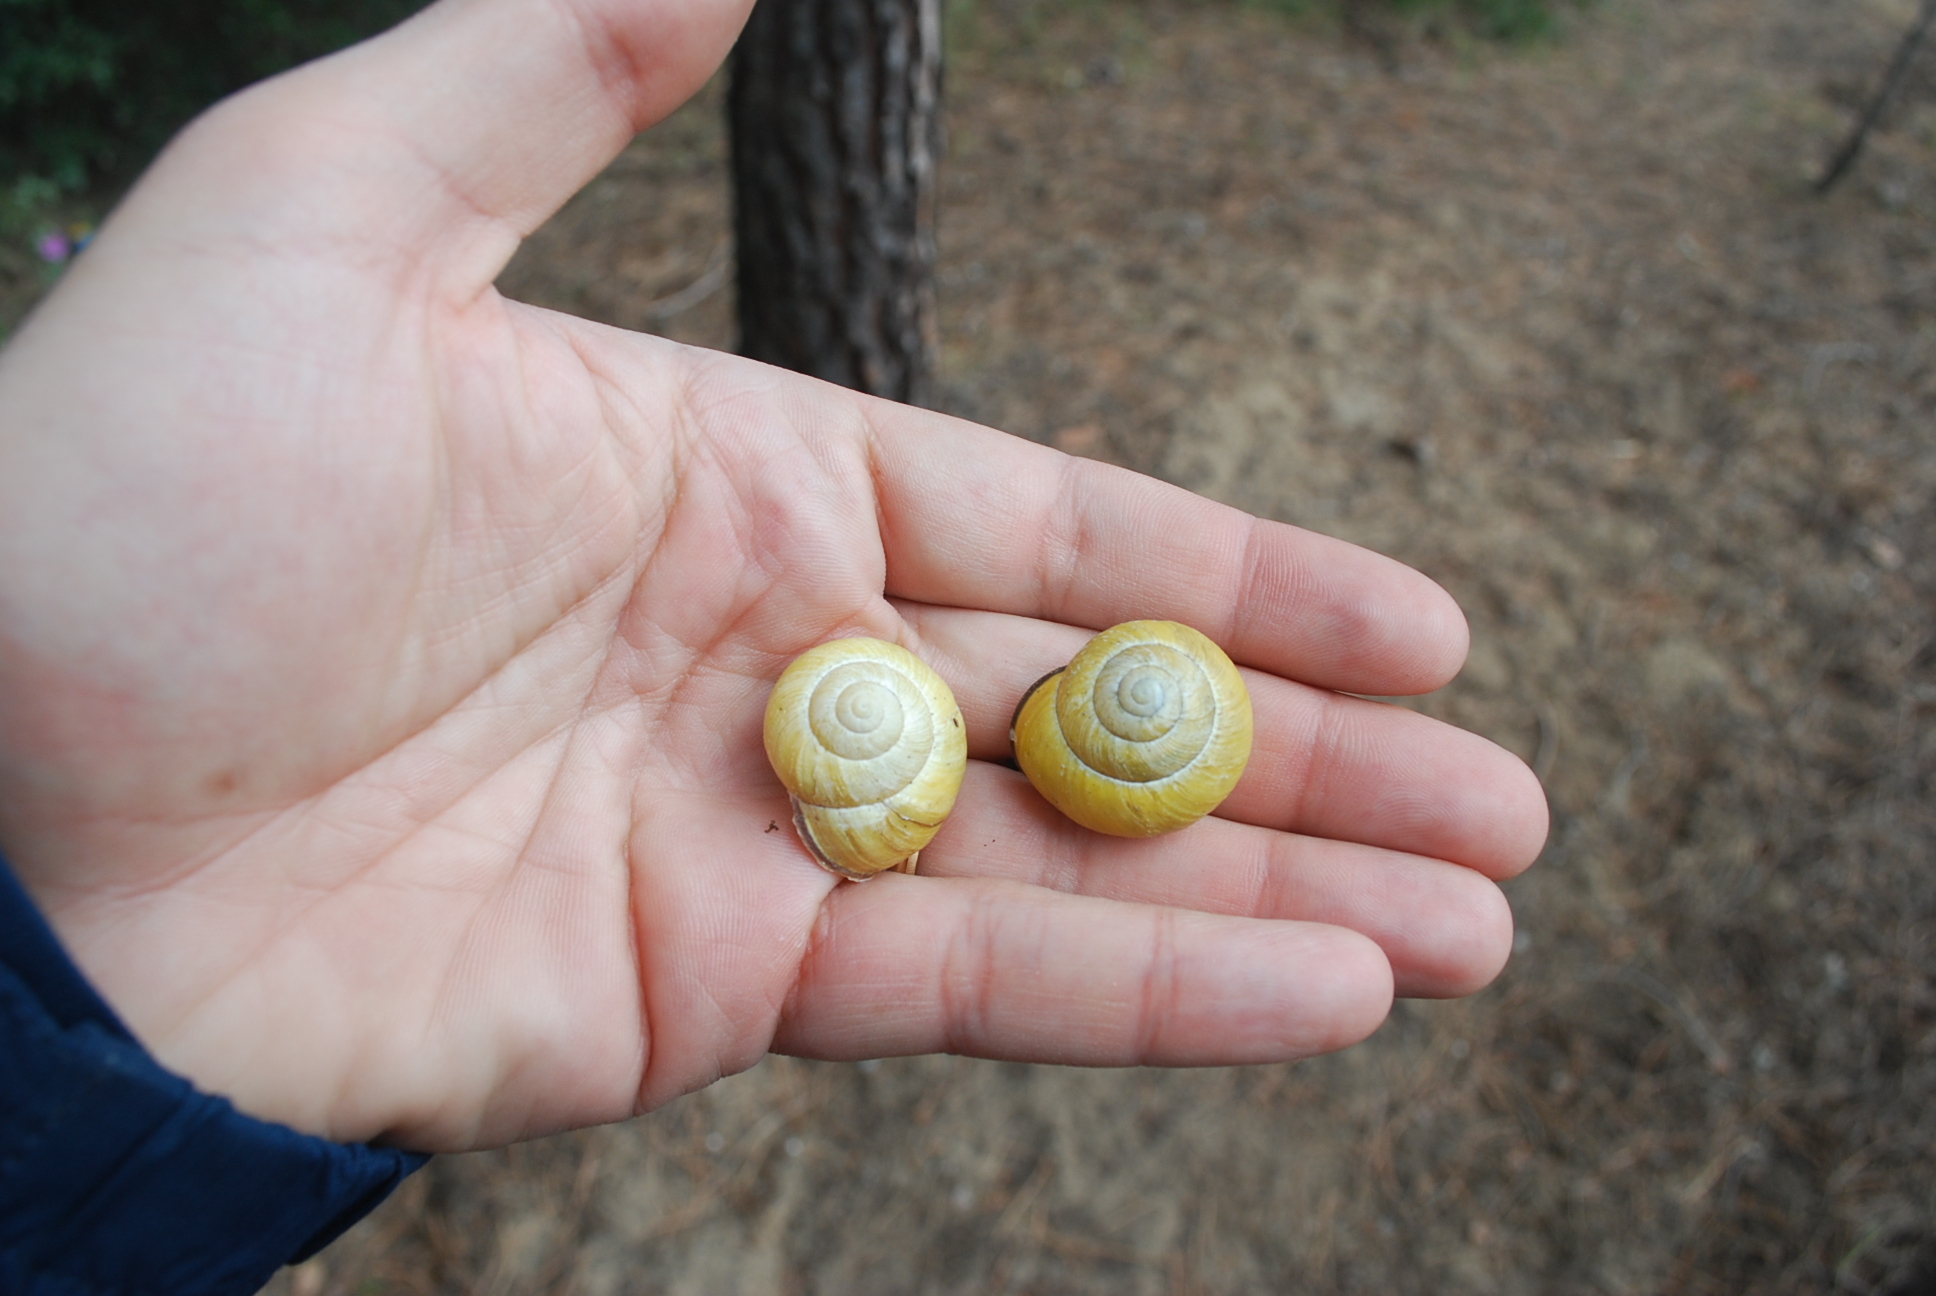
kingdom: Animalia
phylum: Mollusca
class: Gastropoda
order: Stylommatophora
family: Helicidae
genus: Cepaea
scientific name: Cepaea nemoralis
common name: Grovesnail
